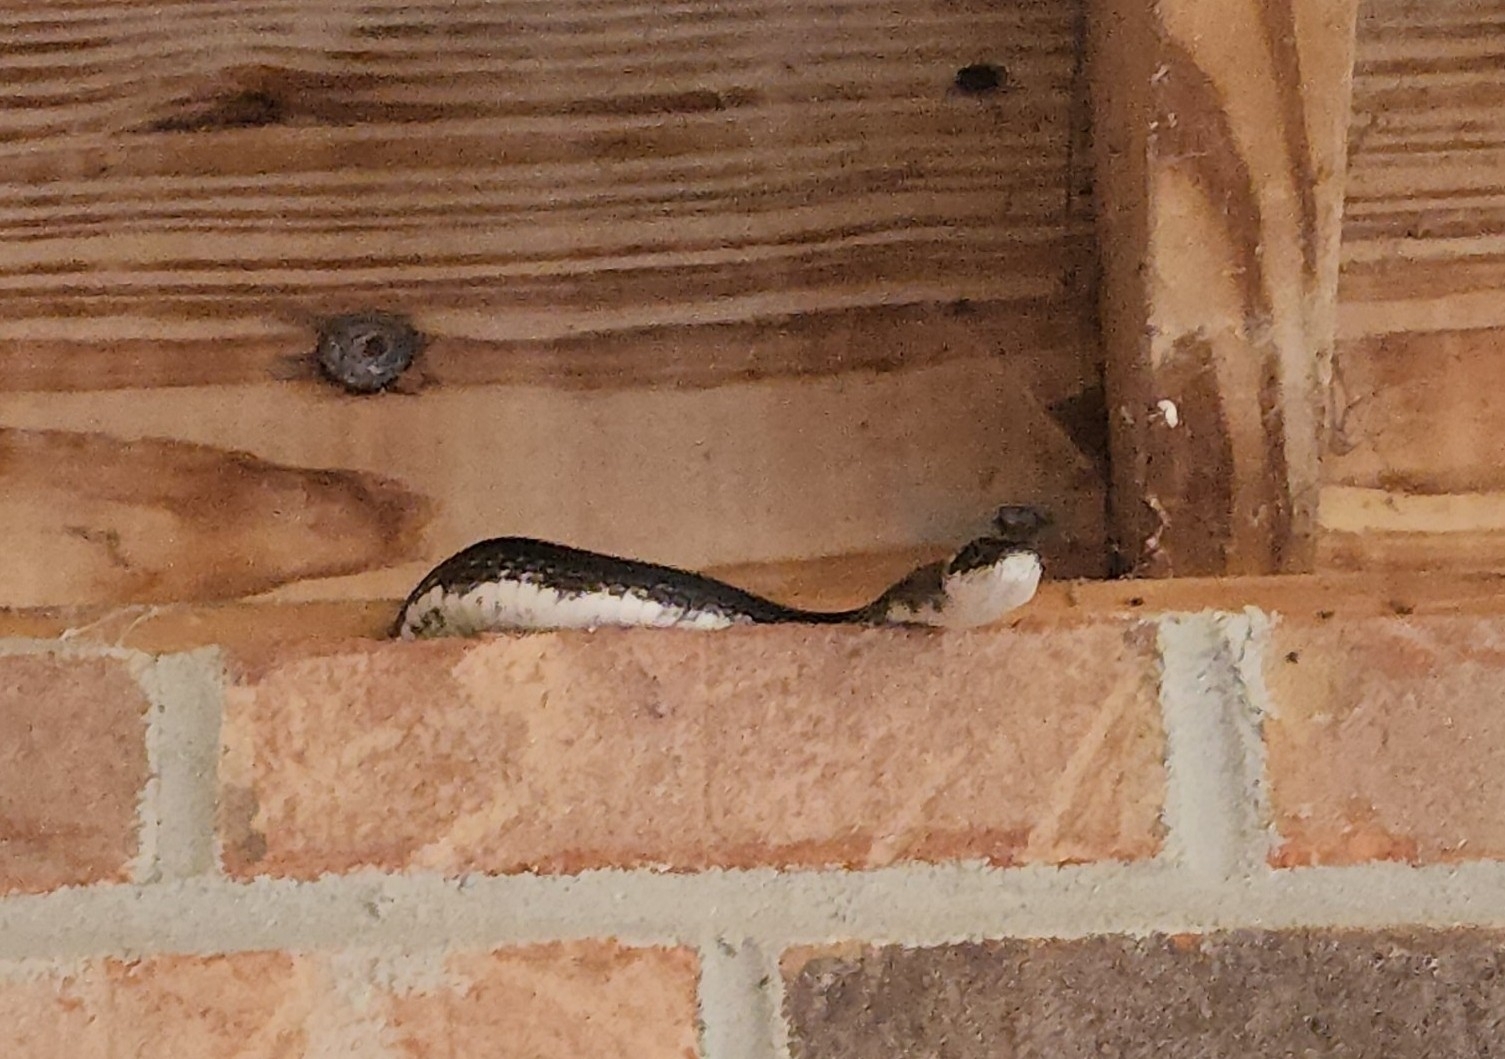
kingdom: Animalia
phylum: Chordata
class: Squamata
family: Colubridae
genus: Pantherophis
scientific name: Pantherophis
